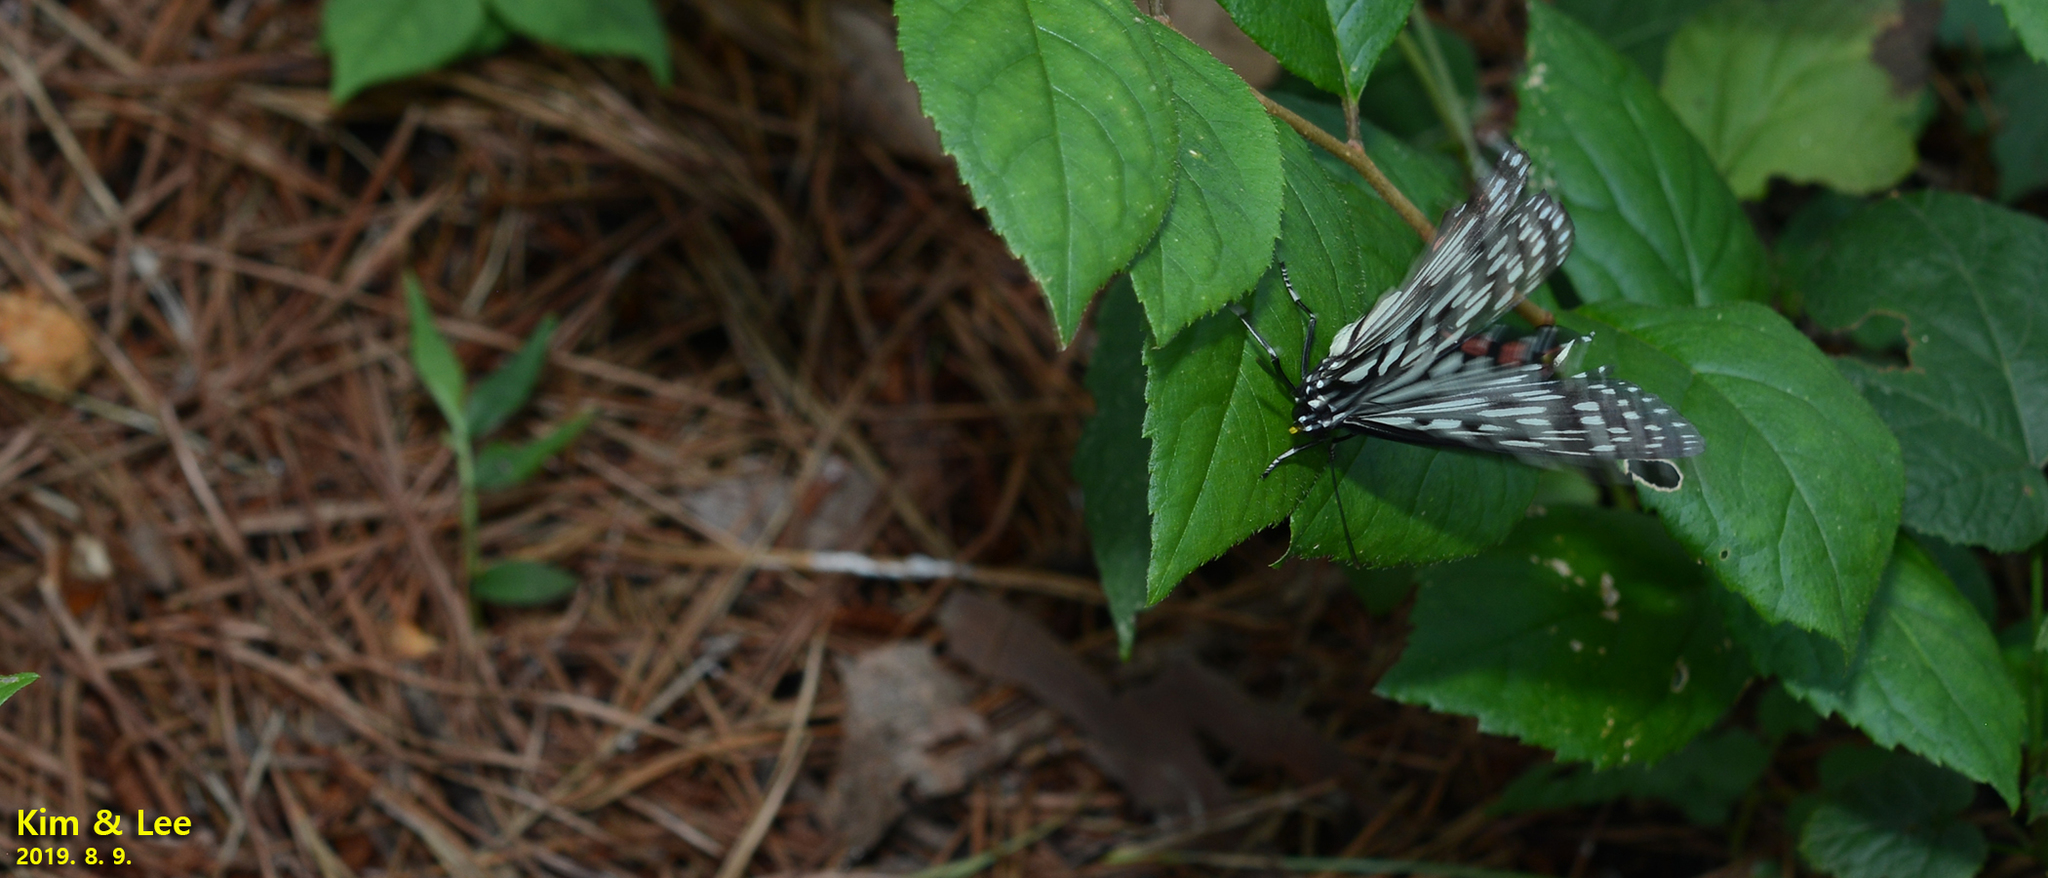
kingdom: Animalia
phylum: Arthropoda
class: Insecta
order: Lepidoptera
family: Nymphalidae
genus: Hestina
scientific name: Hestina assimilis
